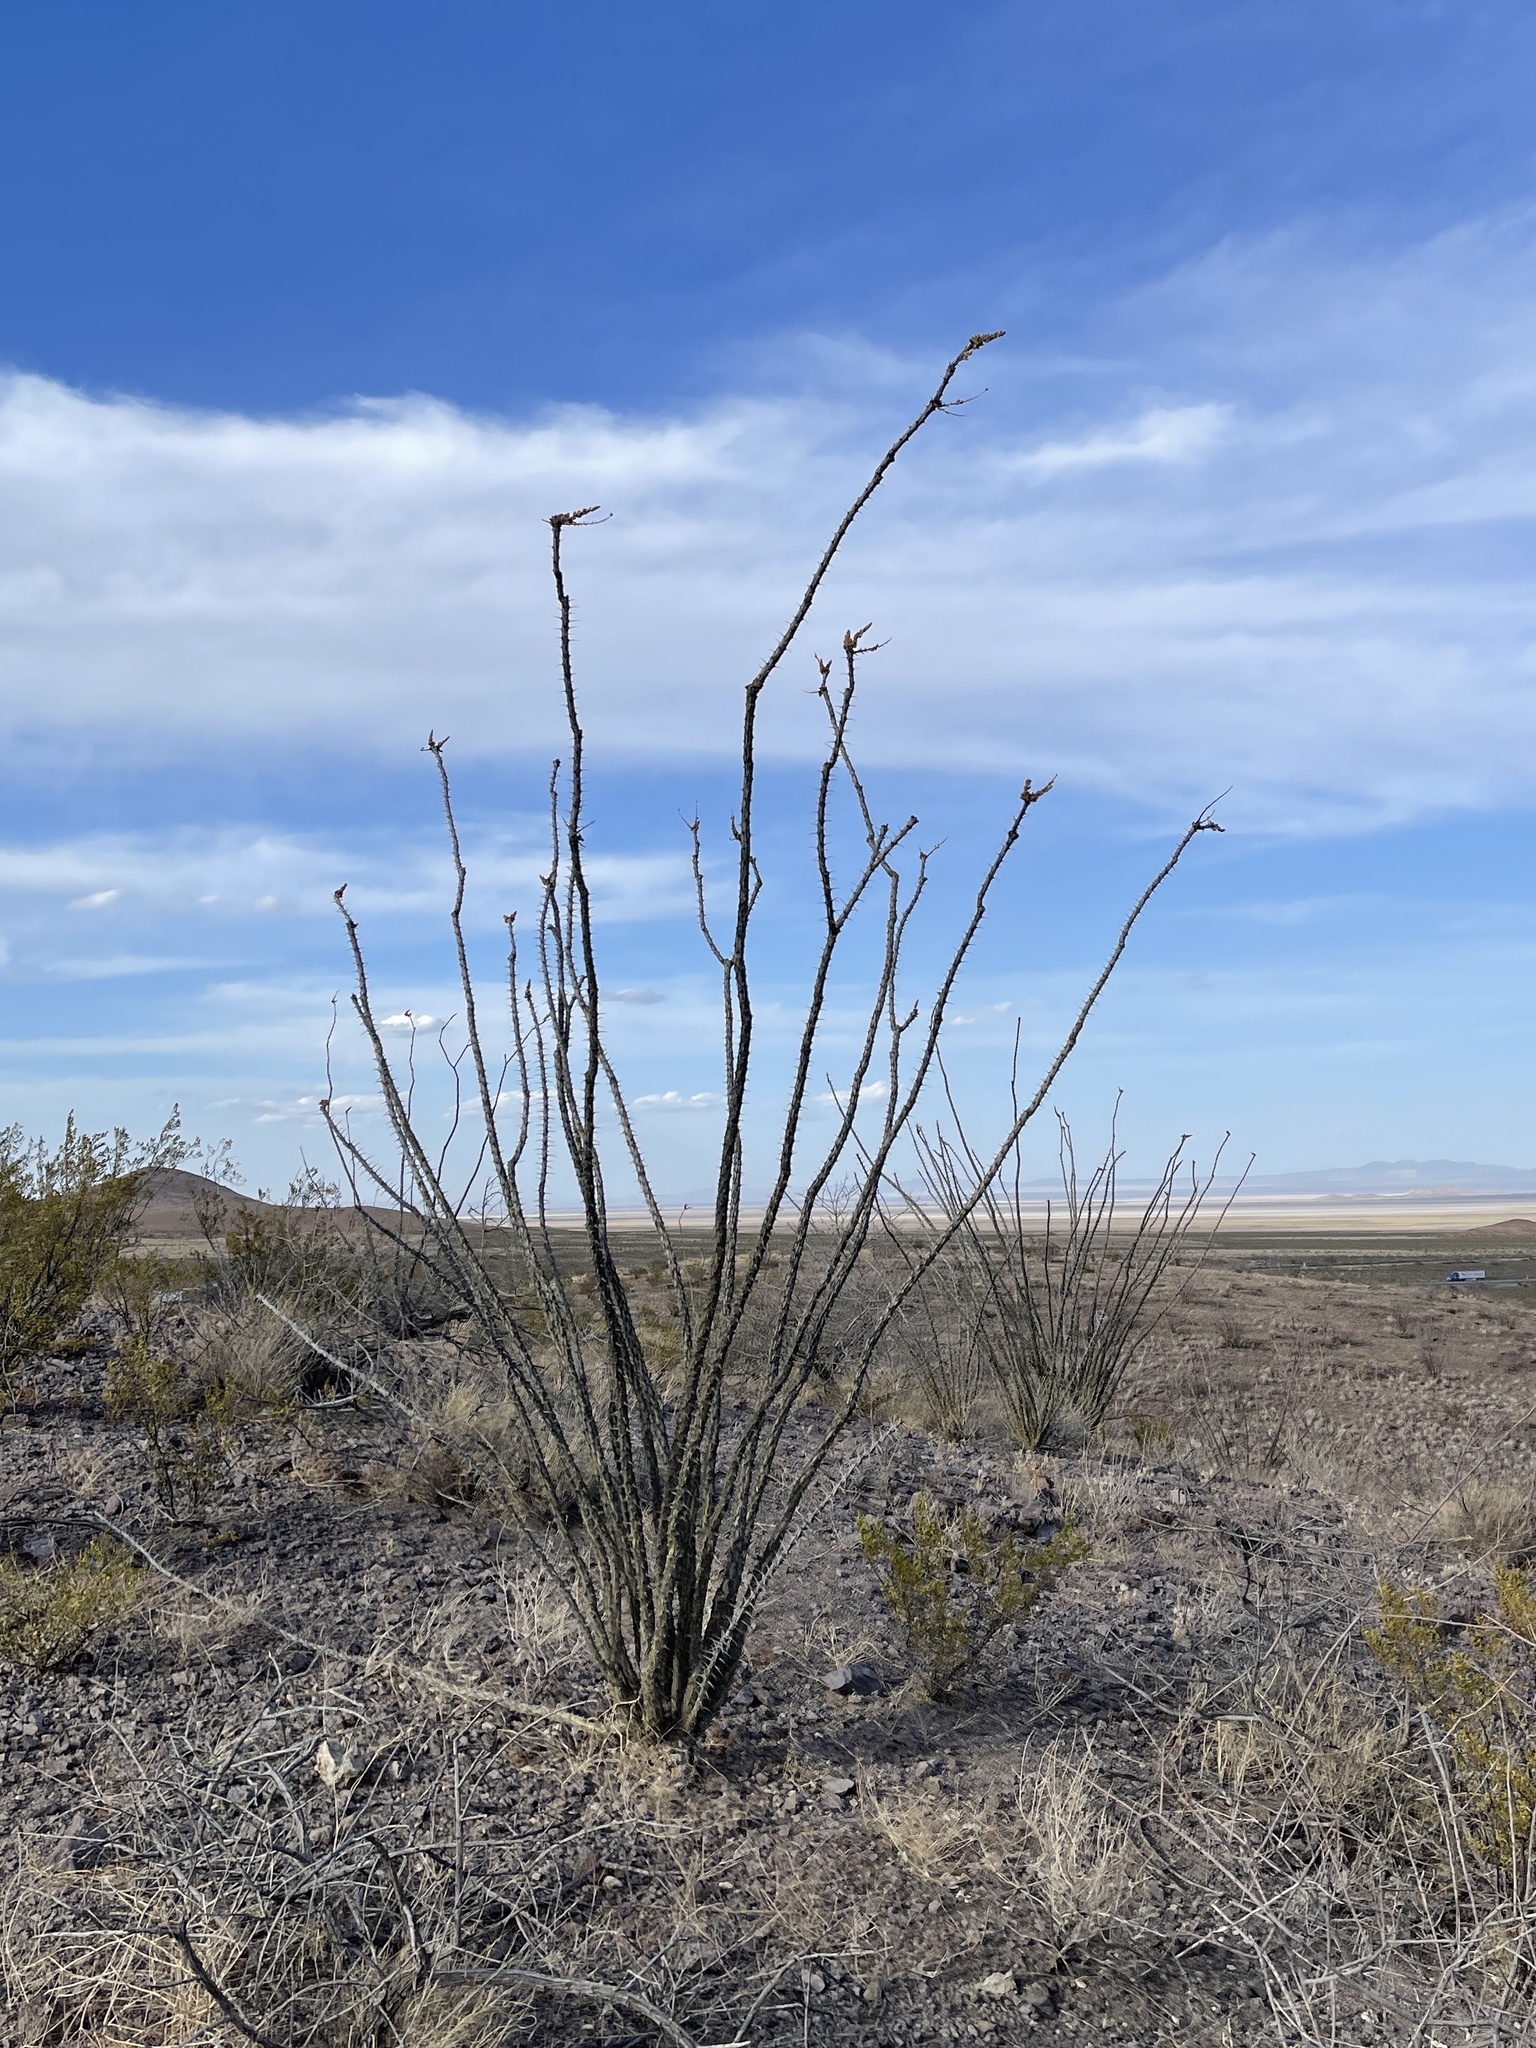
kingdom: Plantae
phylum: Tracheophyta
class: Magnoliopsida
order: Ericales
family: Fouquieriaceae
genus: Fouquieria
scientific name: Fouquieria splendens
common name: Vine-cactus
